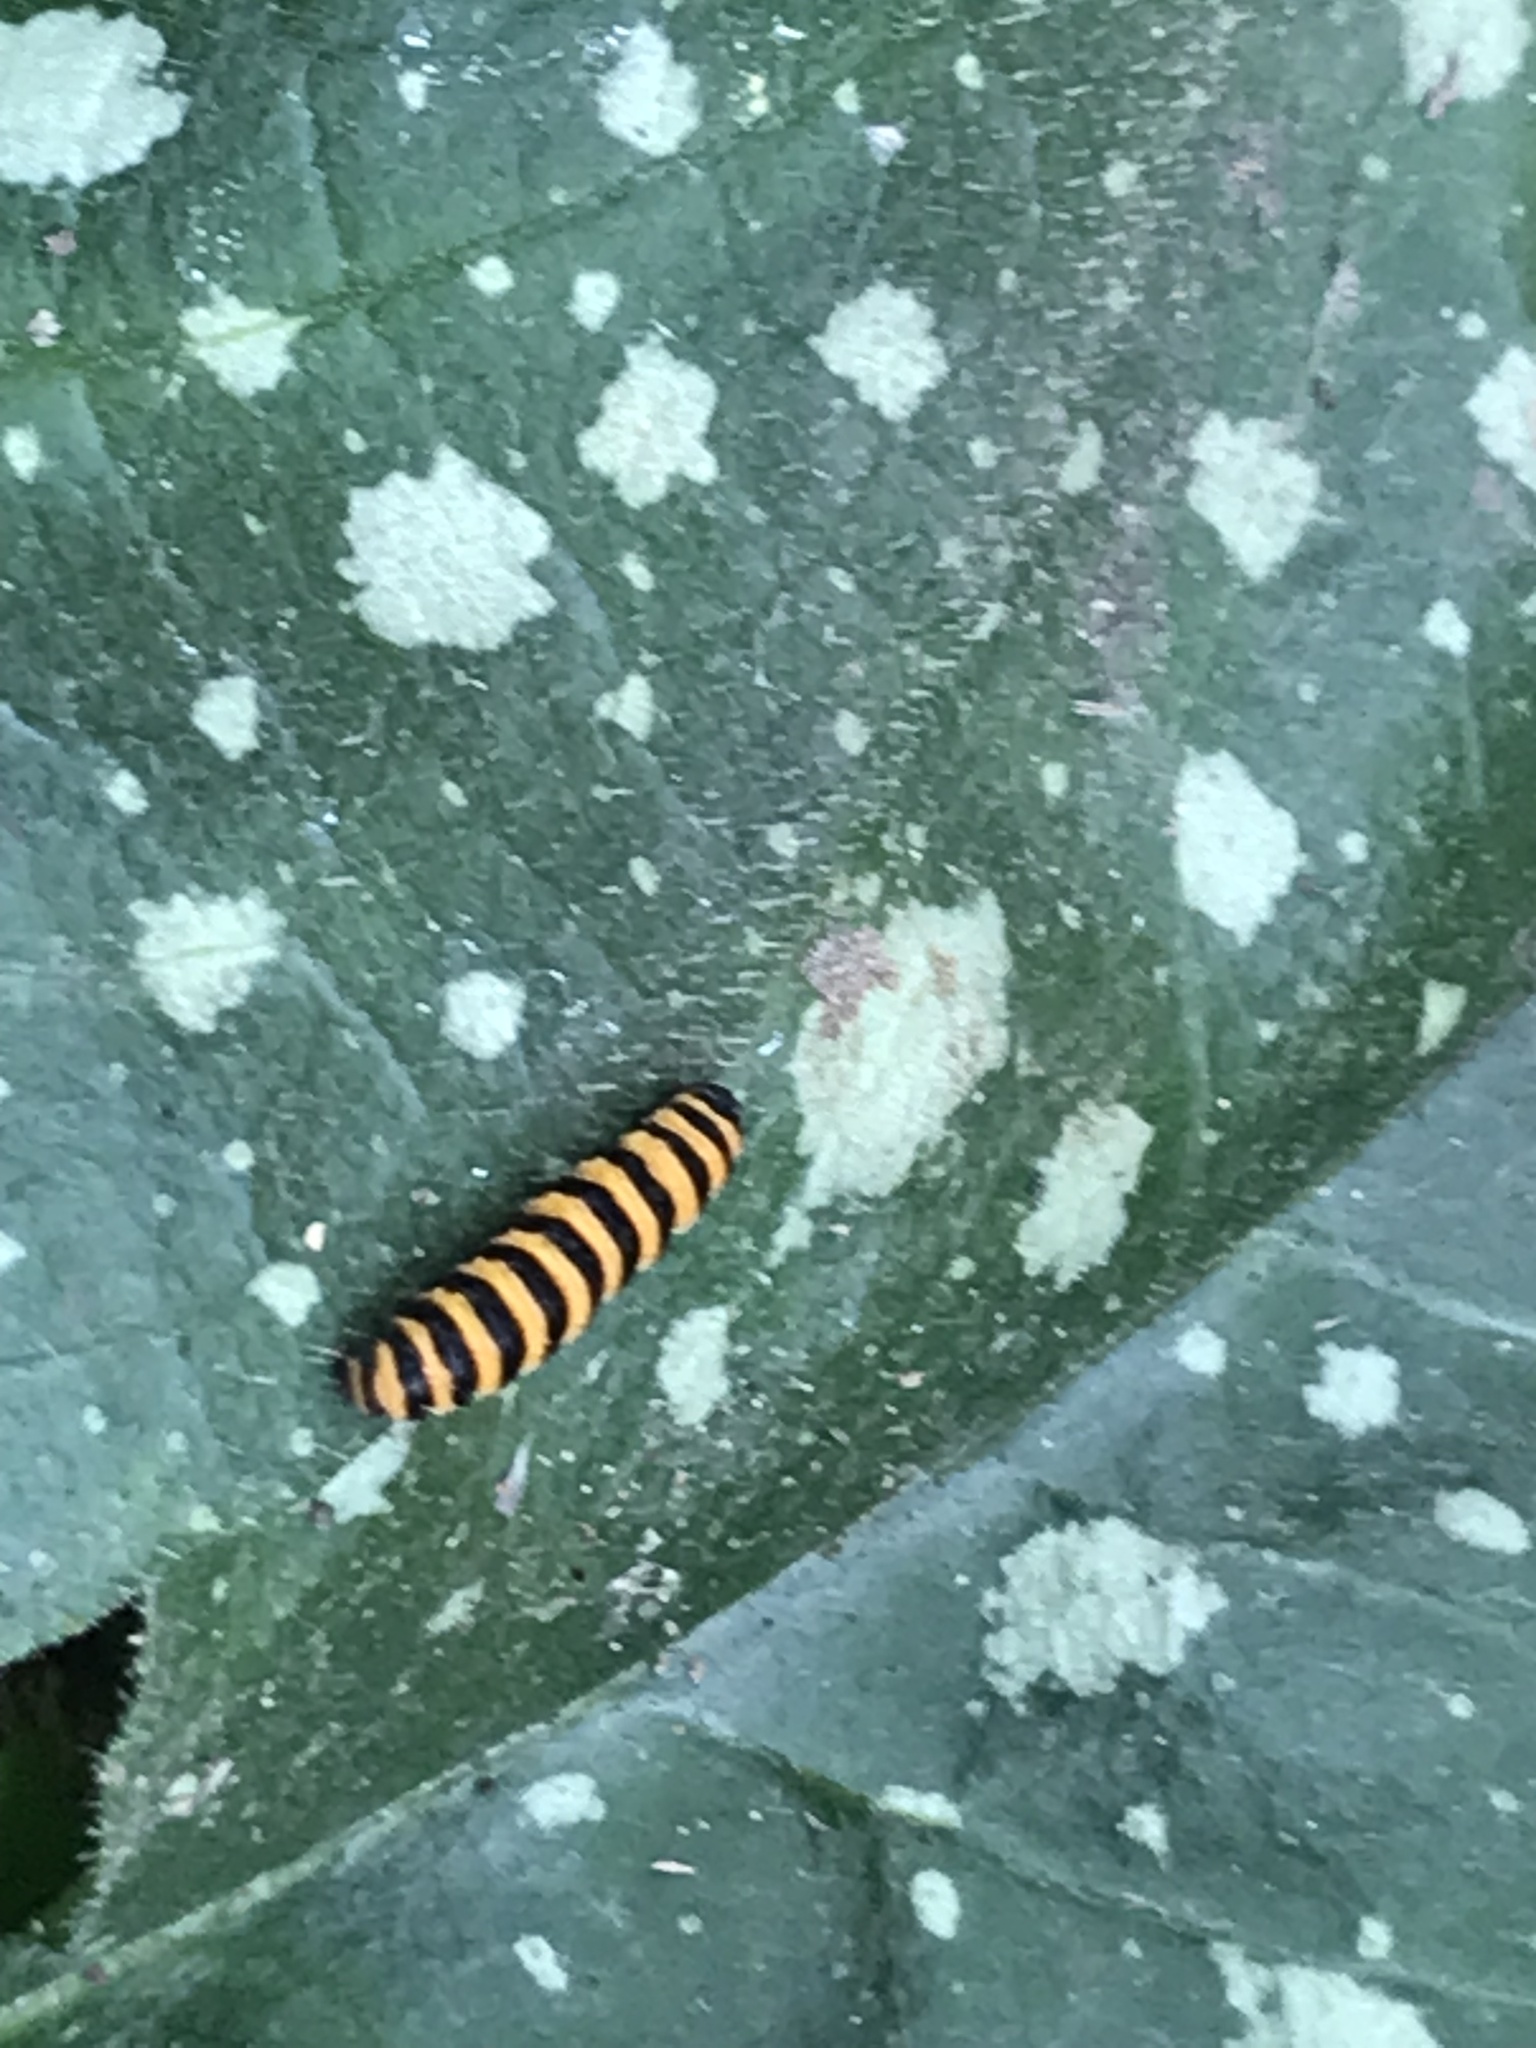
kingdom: Animalia
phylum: Arthropoda
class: Insecta
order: Lepidoptera
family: Erebidae
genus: Tyria
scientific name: Tyria jacobaeae
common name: Cinnabar
